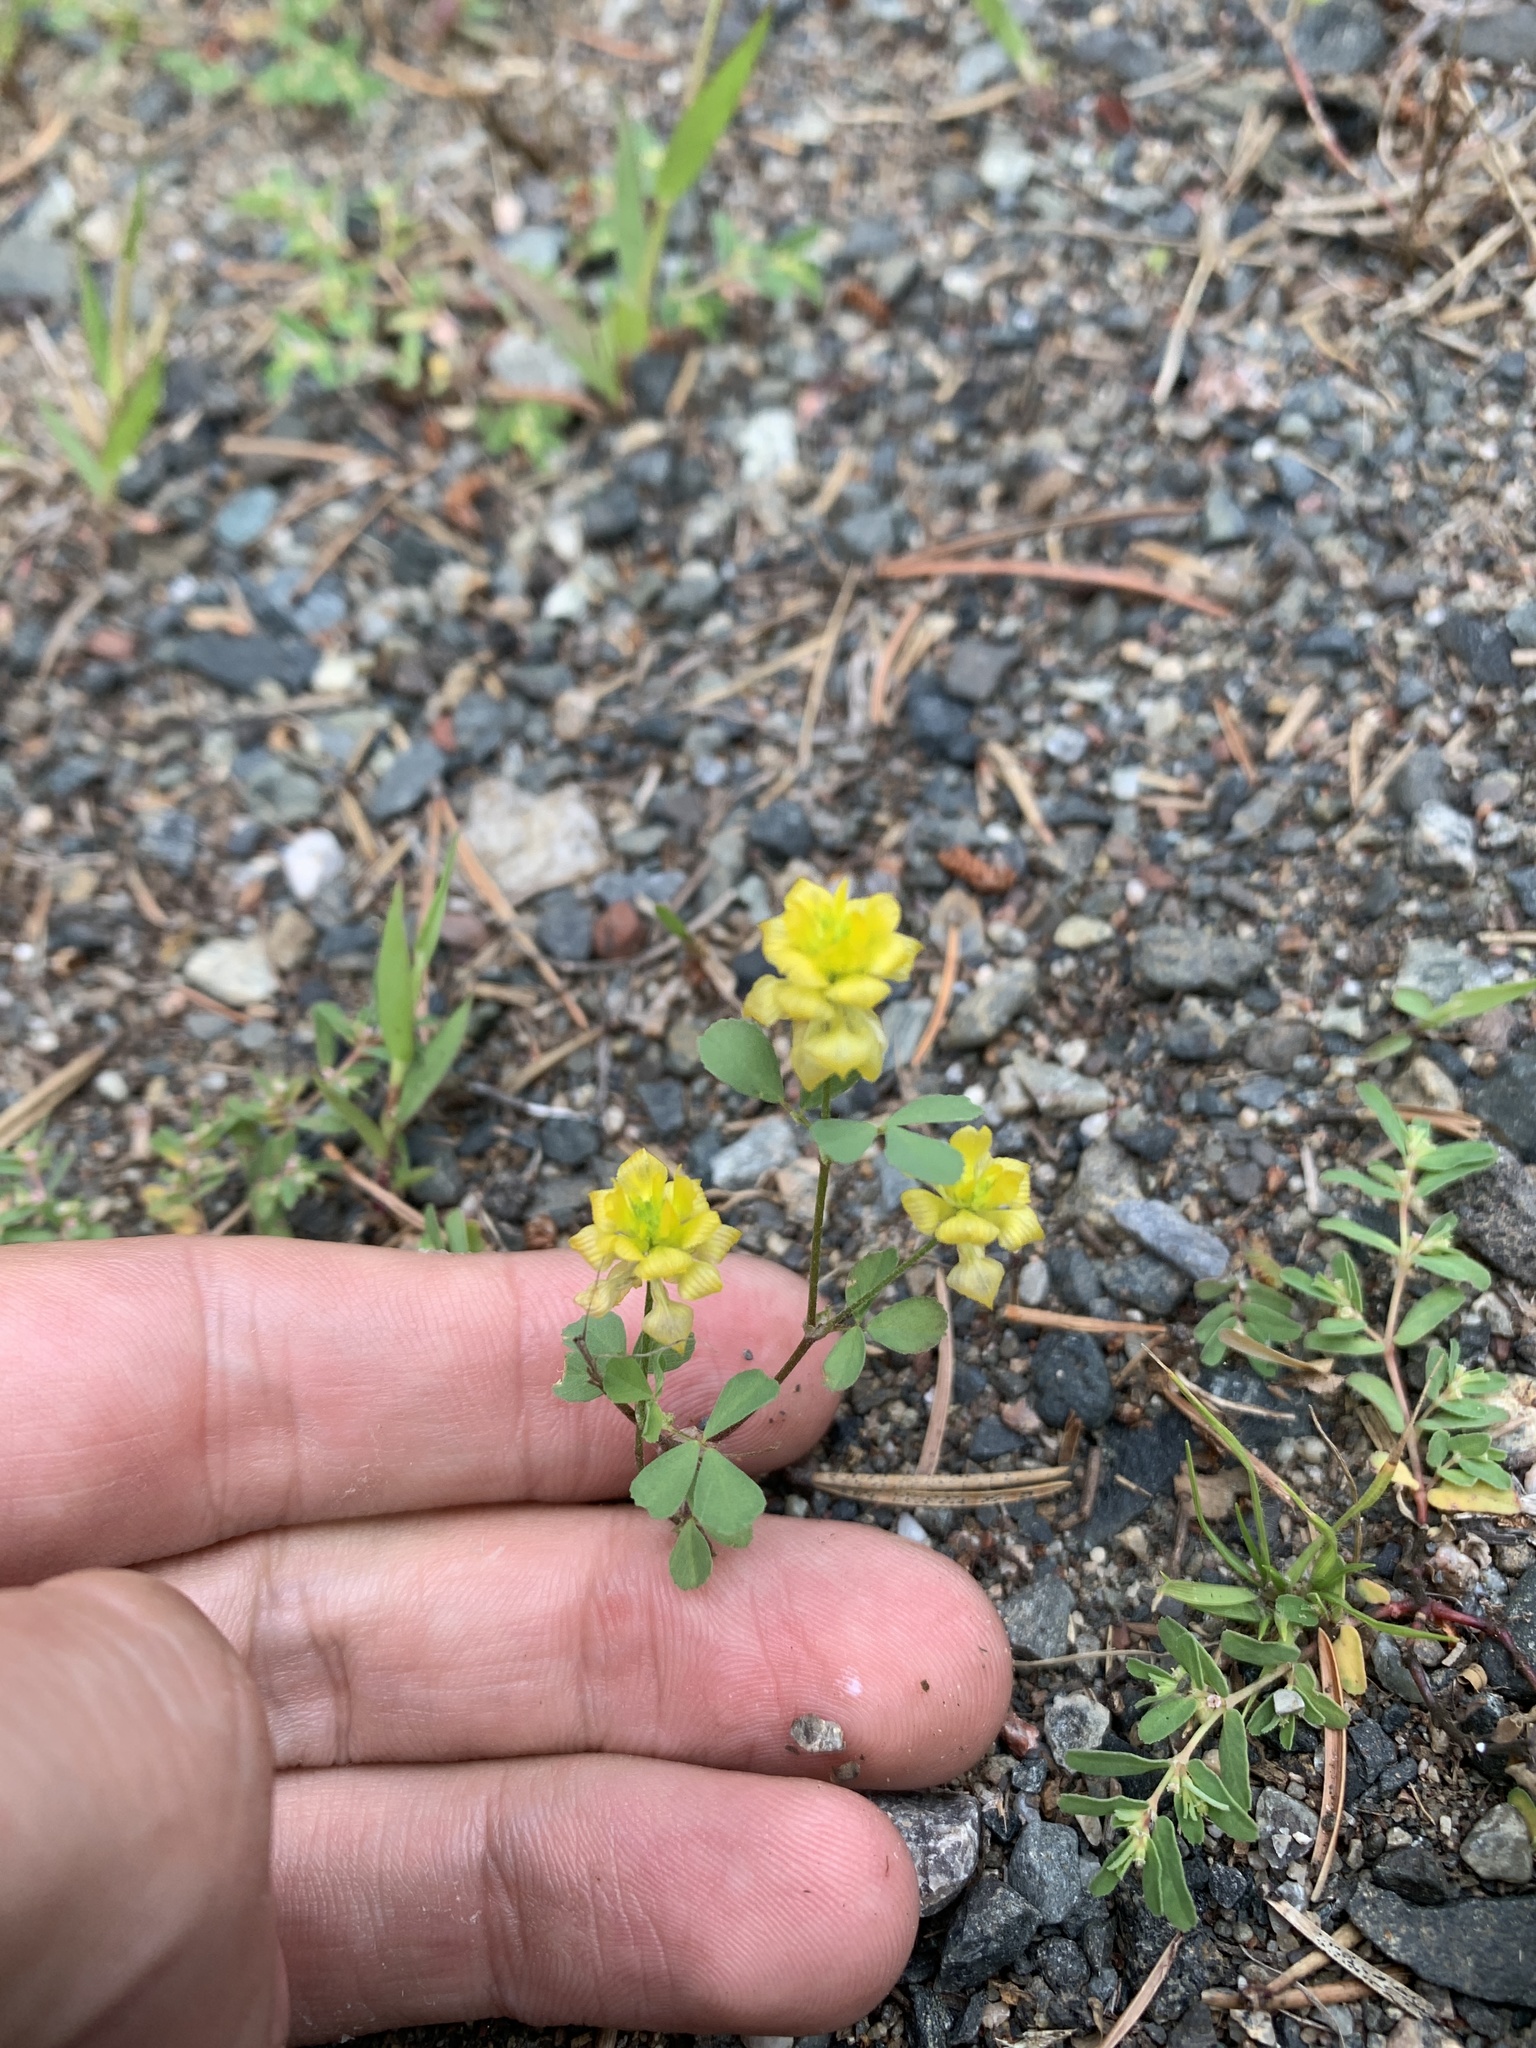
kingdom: Plantae
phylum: Tracheophyta
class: Magnoliopsida
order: Fabales
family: Fabaceae
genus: Trifolium
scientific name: Trifolium campestre
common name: Field clover
